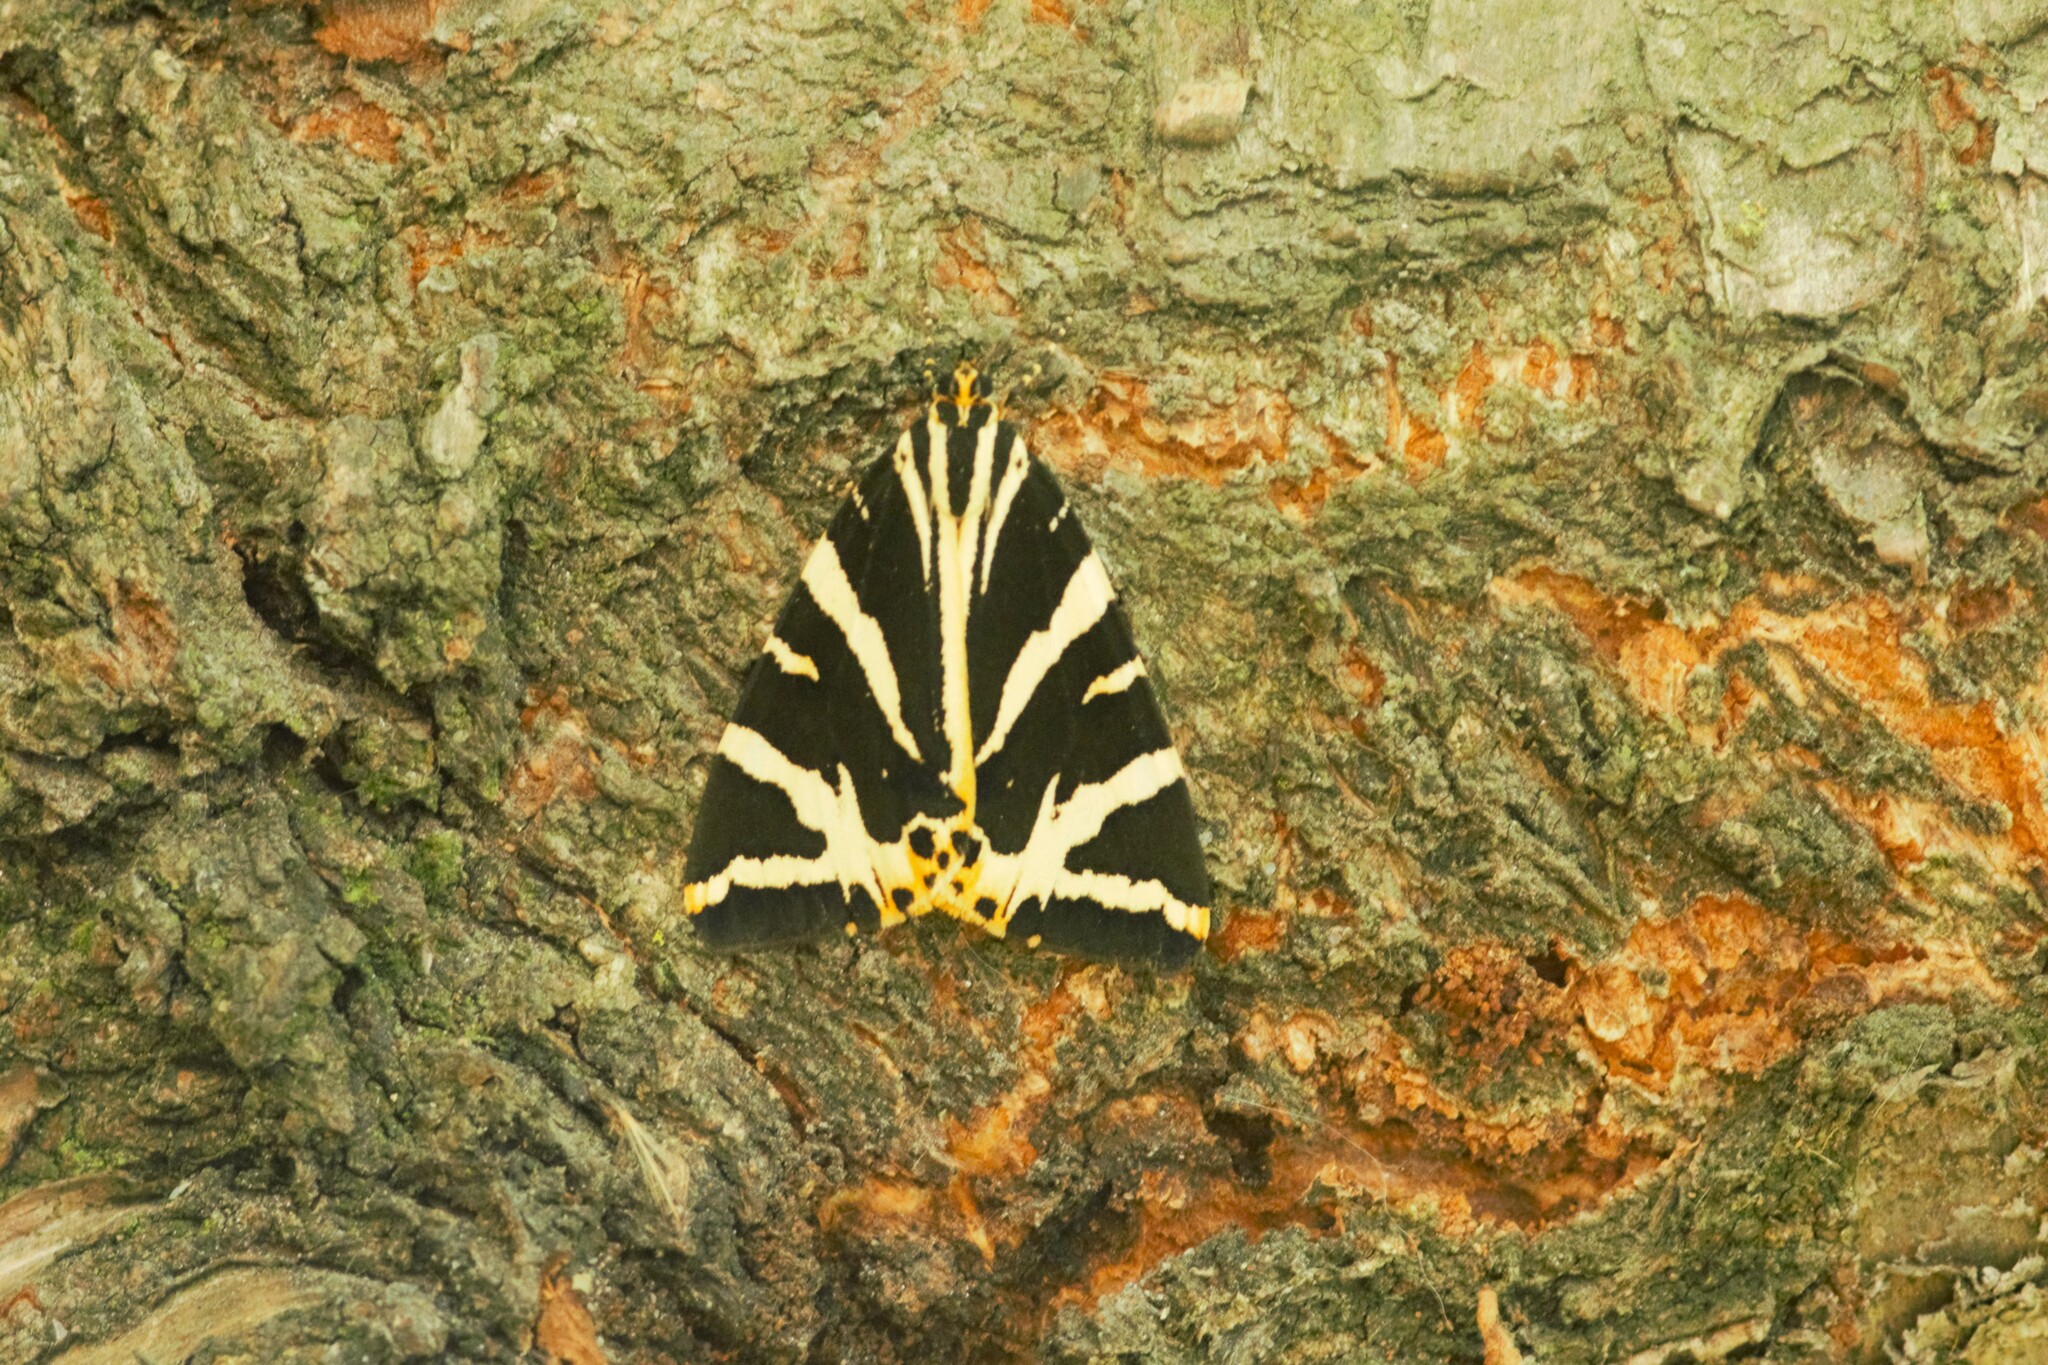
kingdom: Animalia
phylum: Arthropoda
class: Insecta
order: Lepidoptera
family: Erebidae
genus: Euplagia
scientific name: Euplagia quadripunctaria
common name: Jersey tiger
